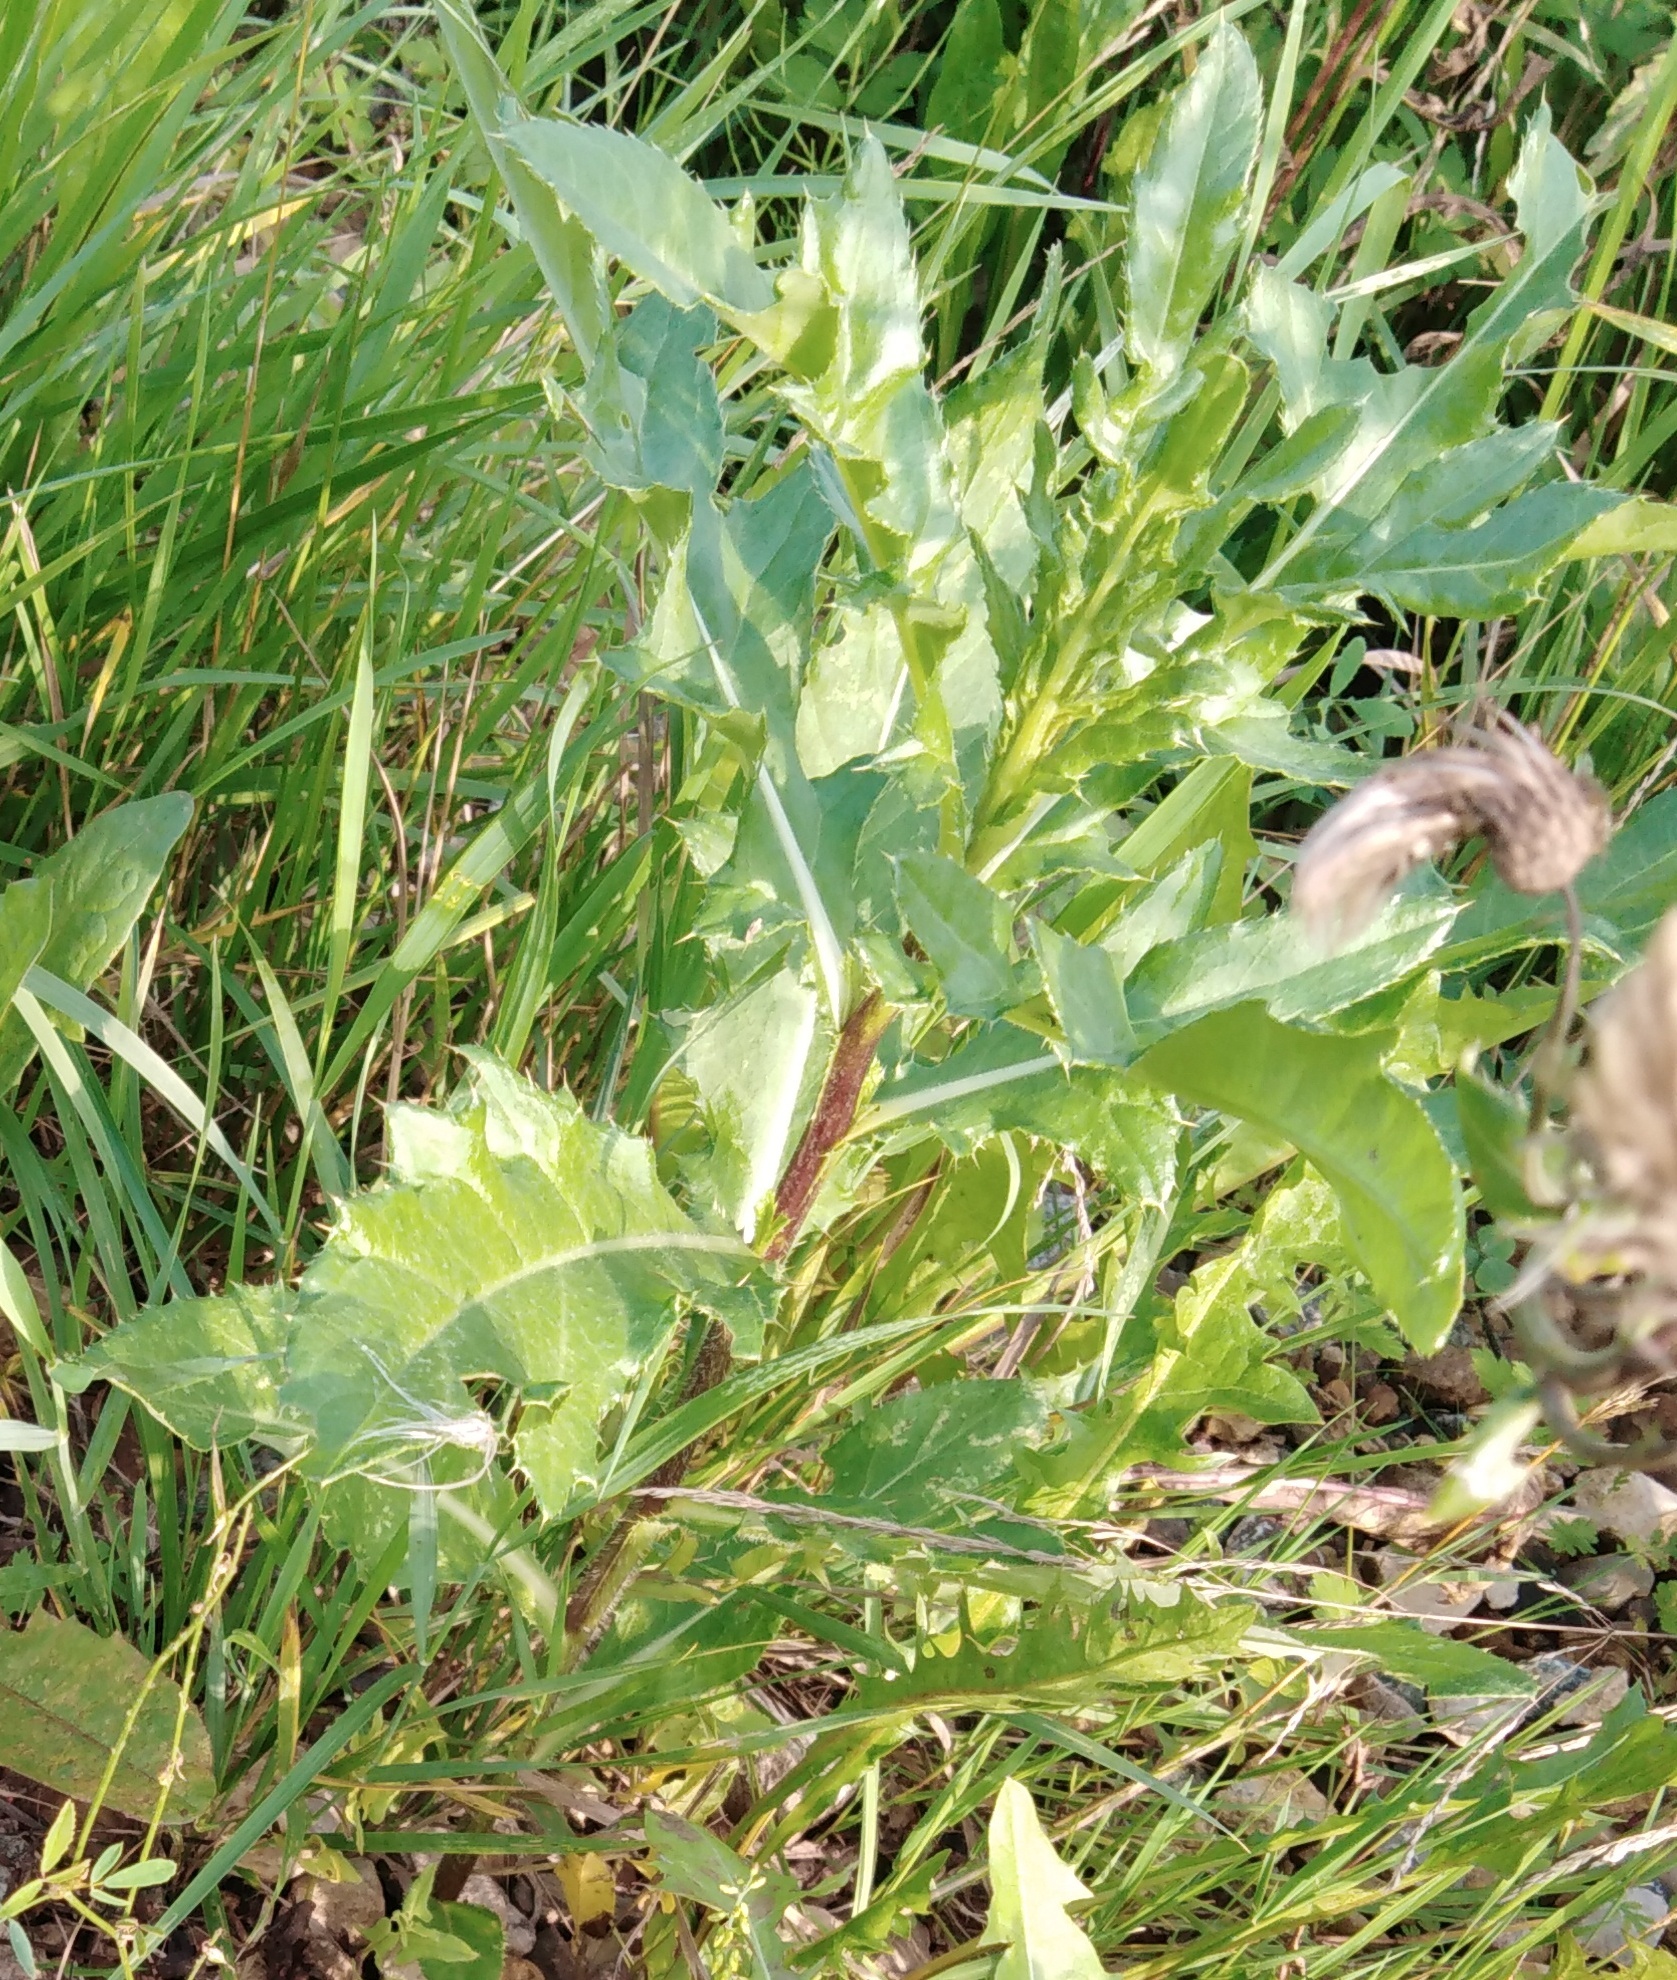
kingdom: Plantae
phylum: Tracheophyta
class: Magnoliopsida
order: Asterales
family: Asteraceae
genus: Cirsium
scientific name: Cirsium arvense
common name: Creeping thistle
